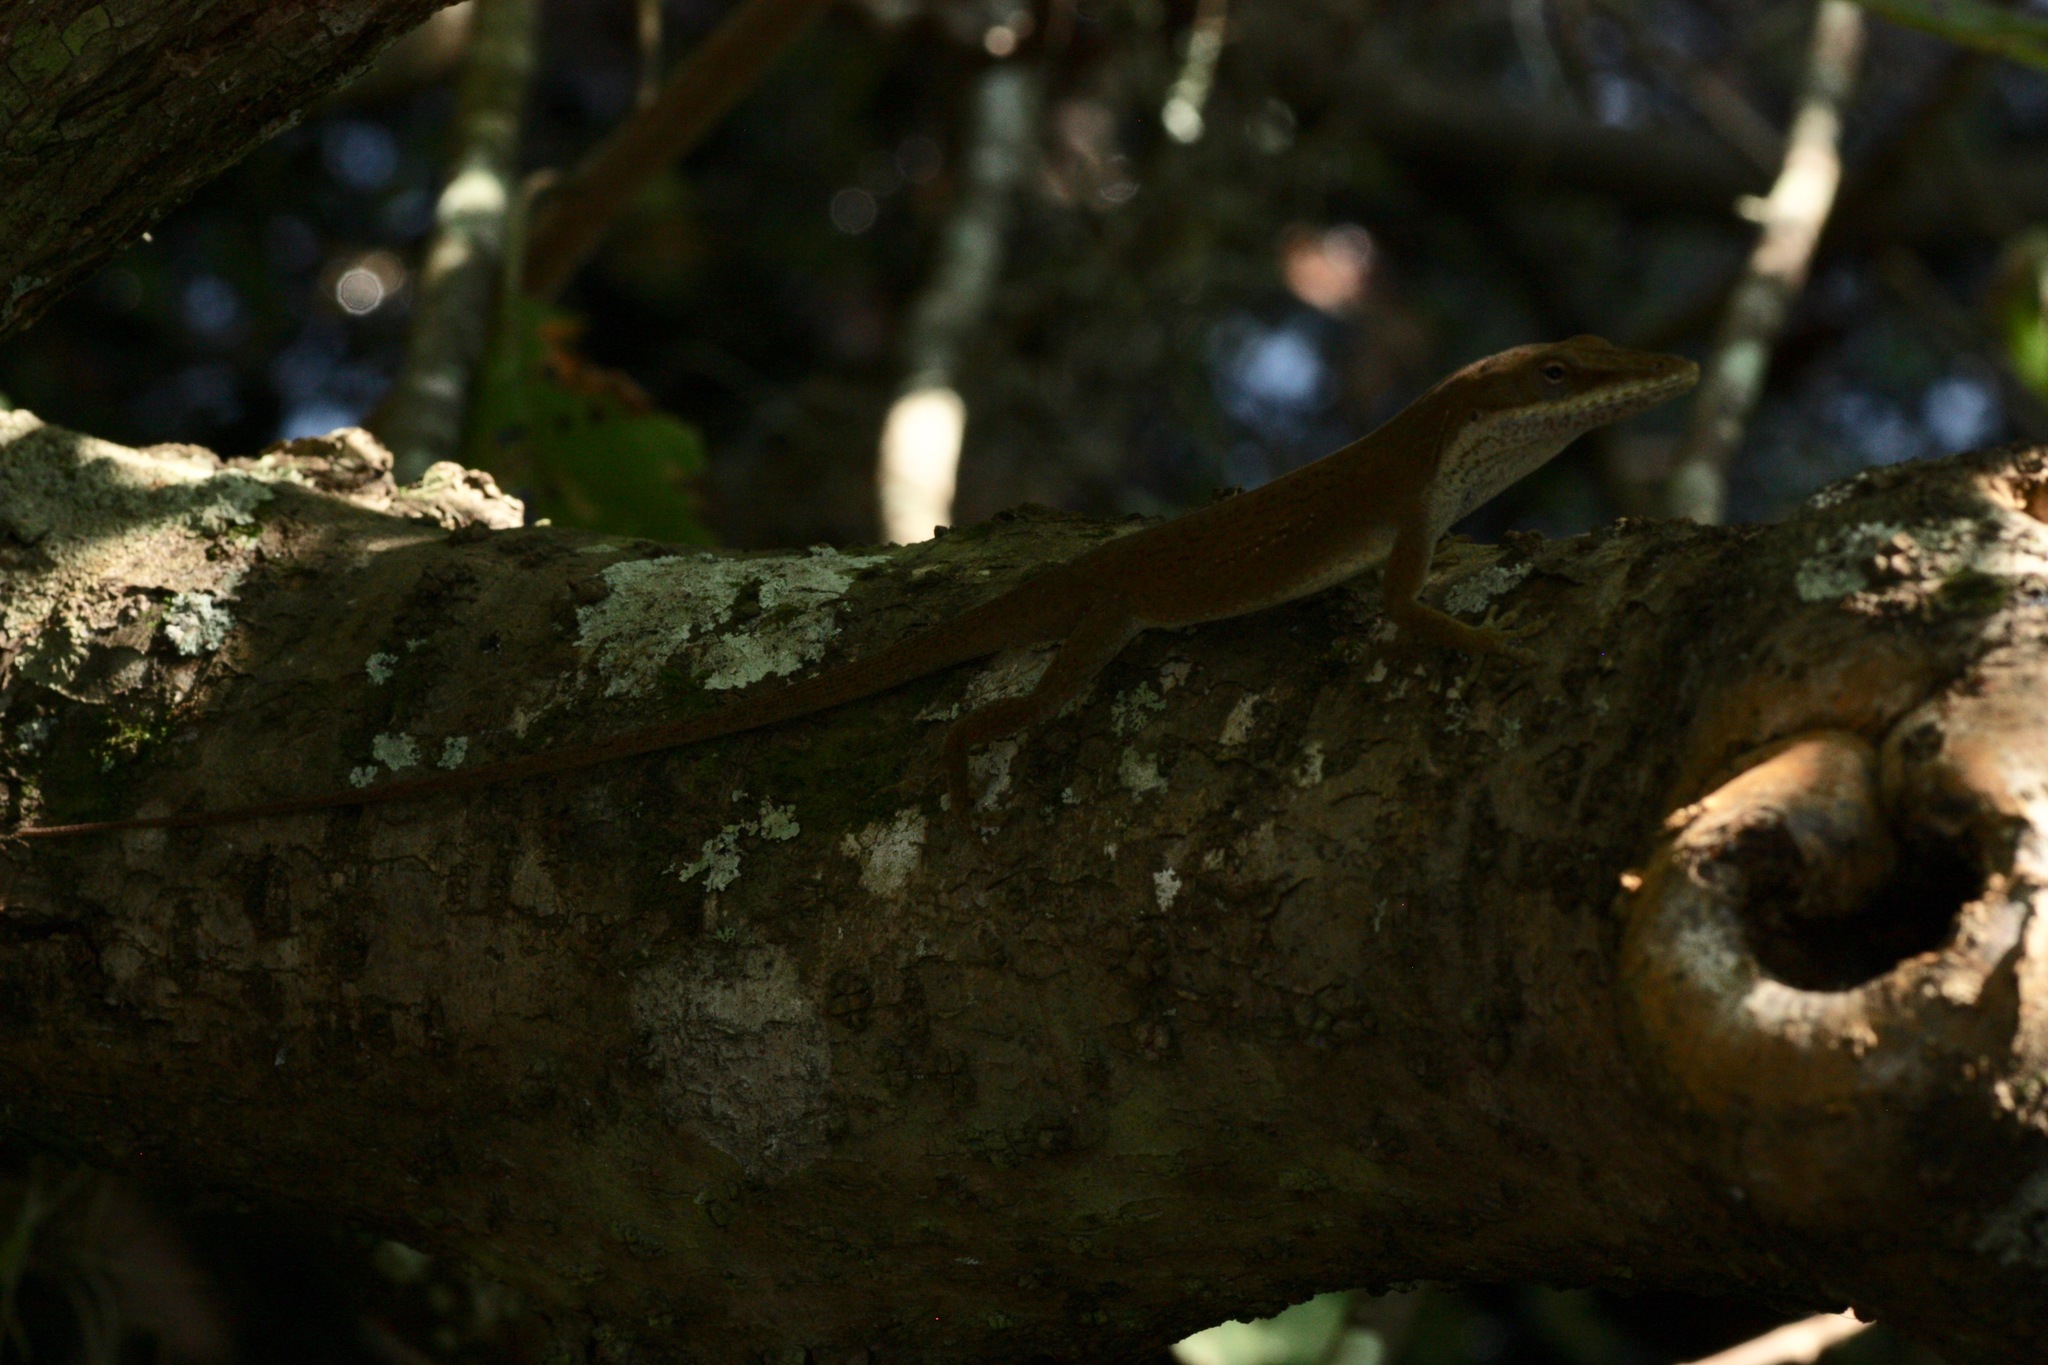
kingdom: Animalia
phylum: Chordata
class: Squamata
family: Dactyloidae
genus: Anolis
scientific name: Anolis carolinensis
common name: Green anole
